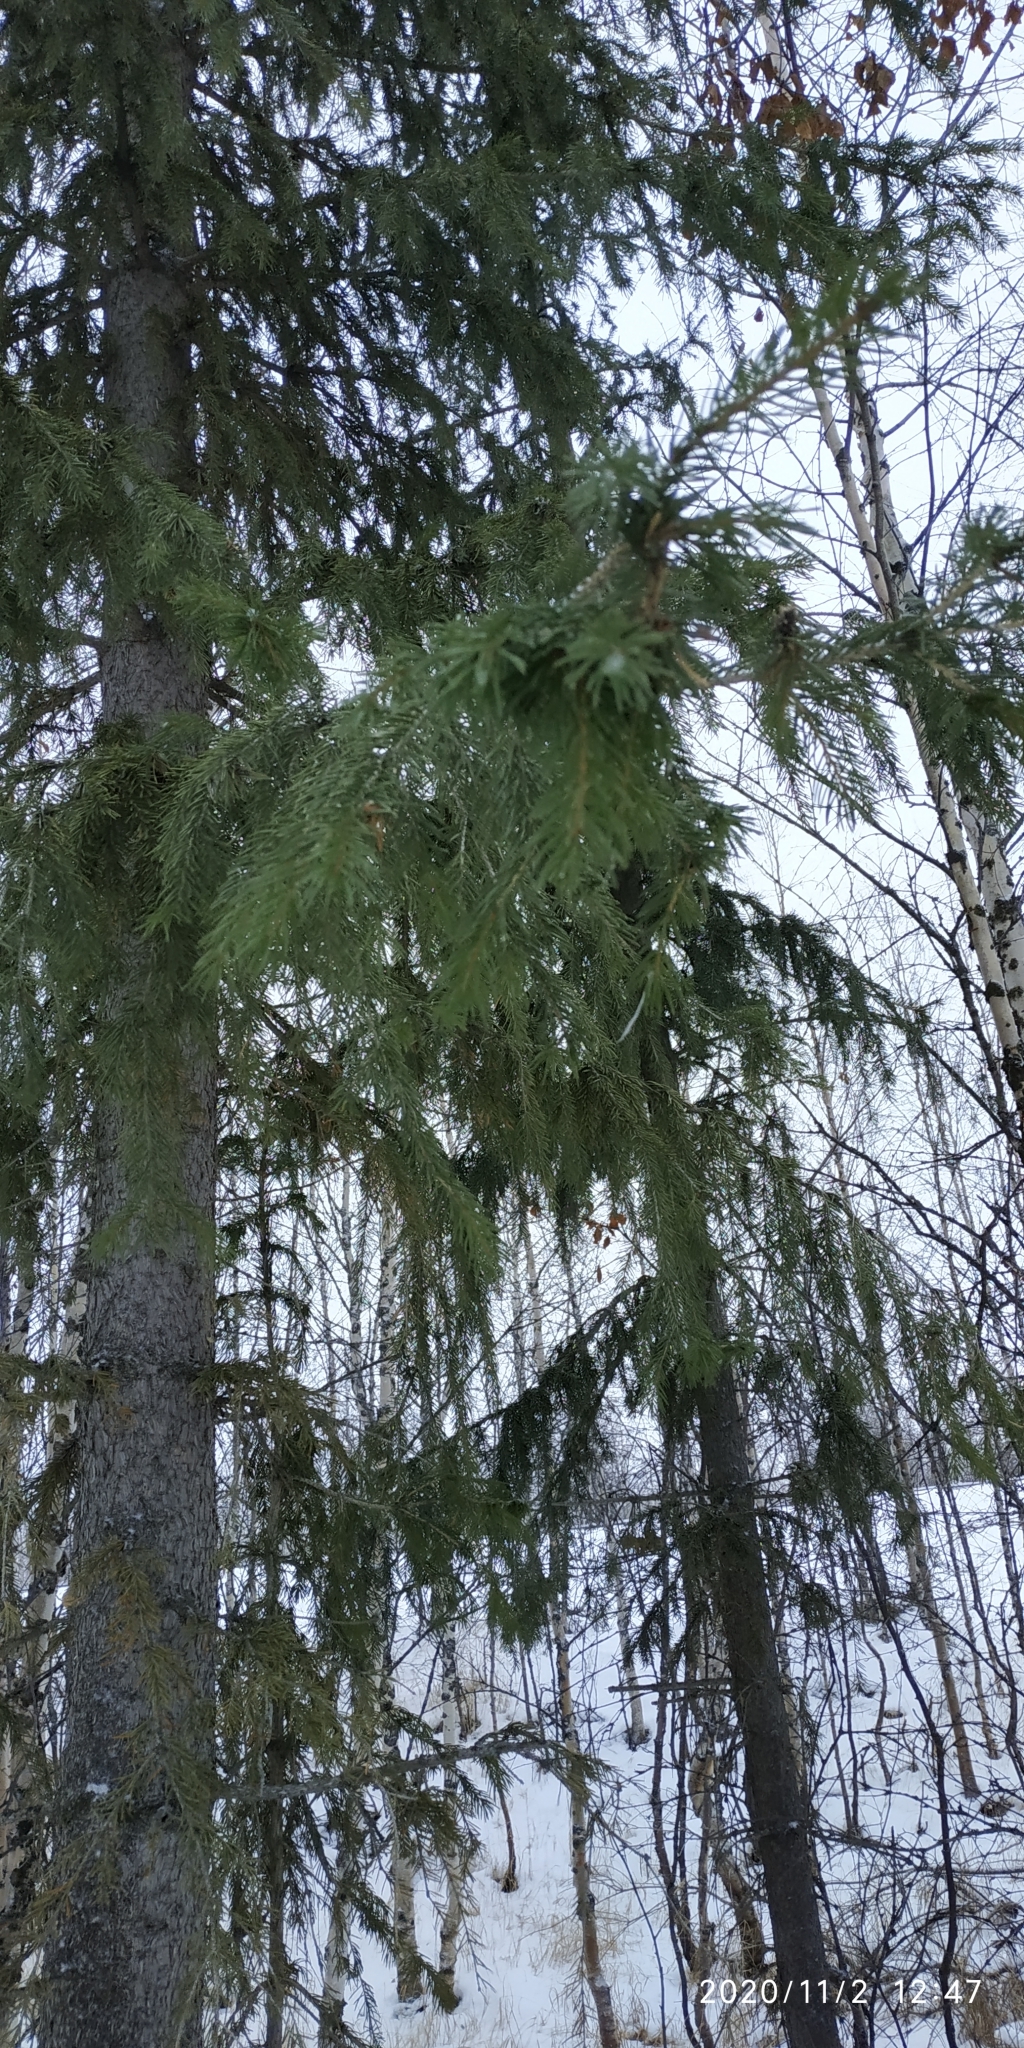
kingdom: Plantae
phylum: Tracheophyta
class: Pinopsida
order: Pinales
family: Pinaceae
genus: Picea
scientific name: Picea obovata
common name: Siberian spruce
